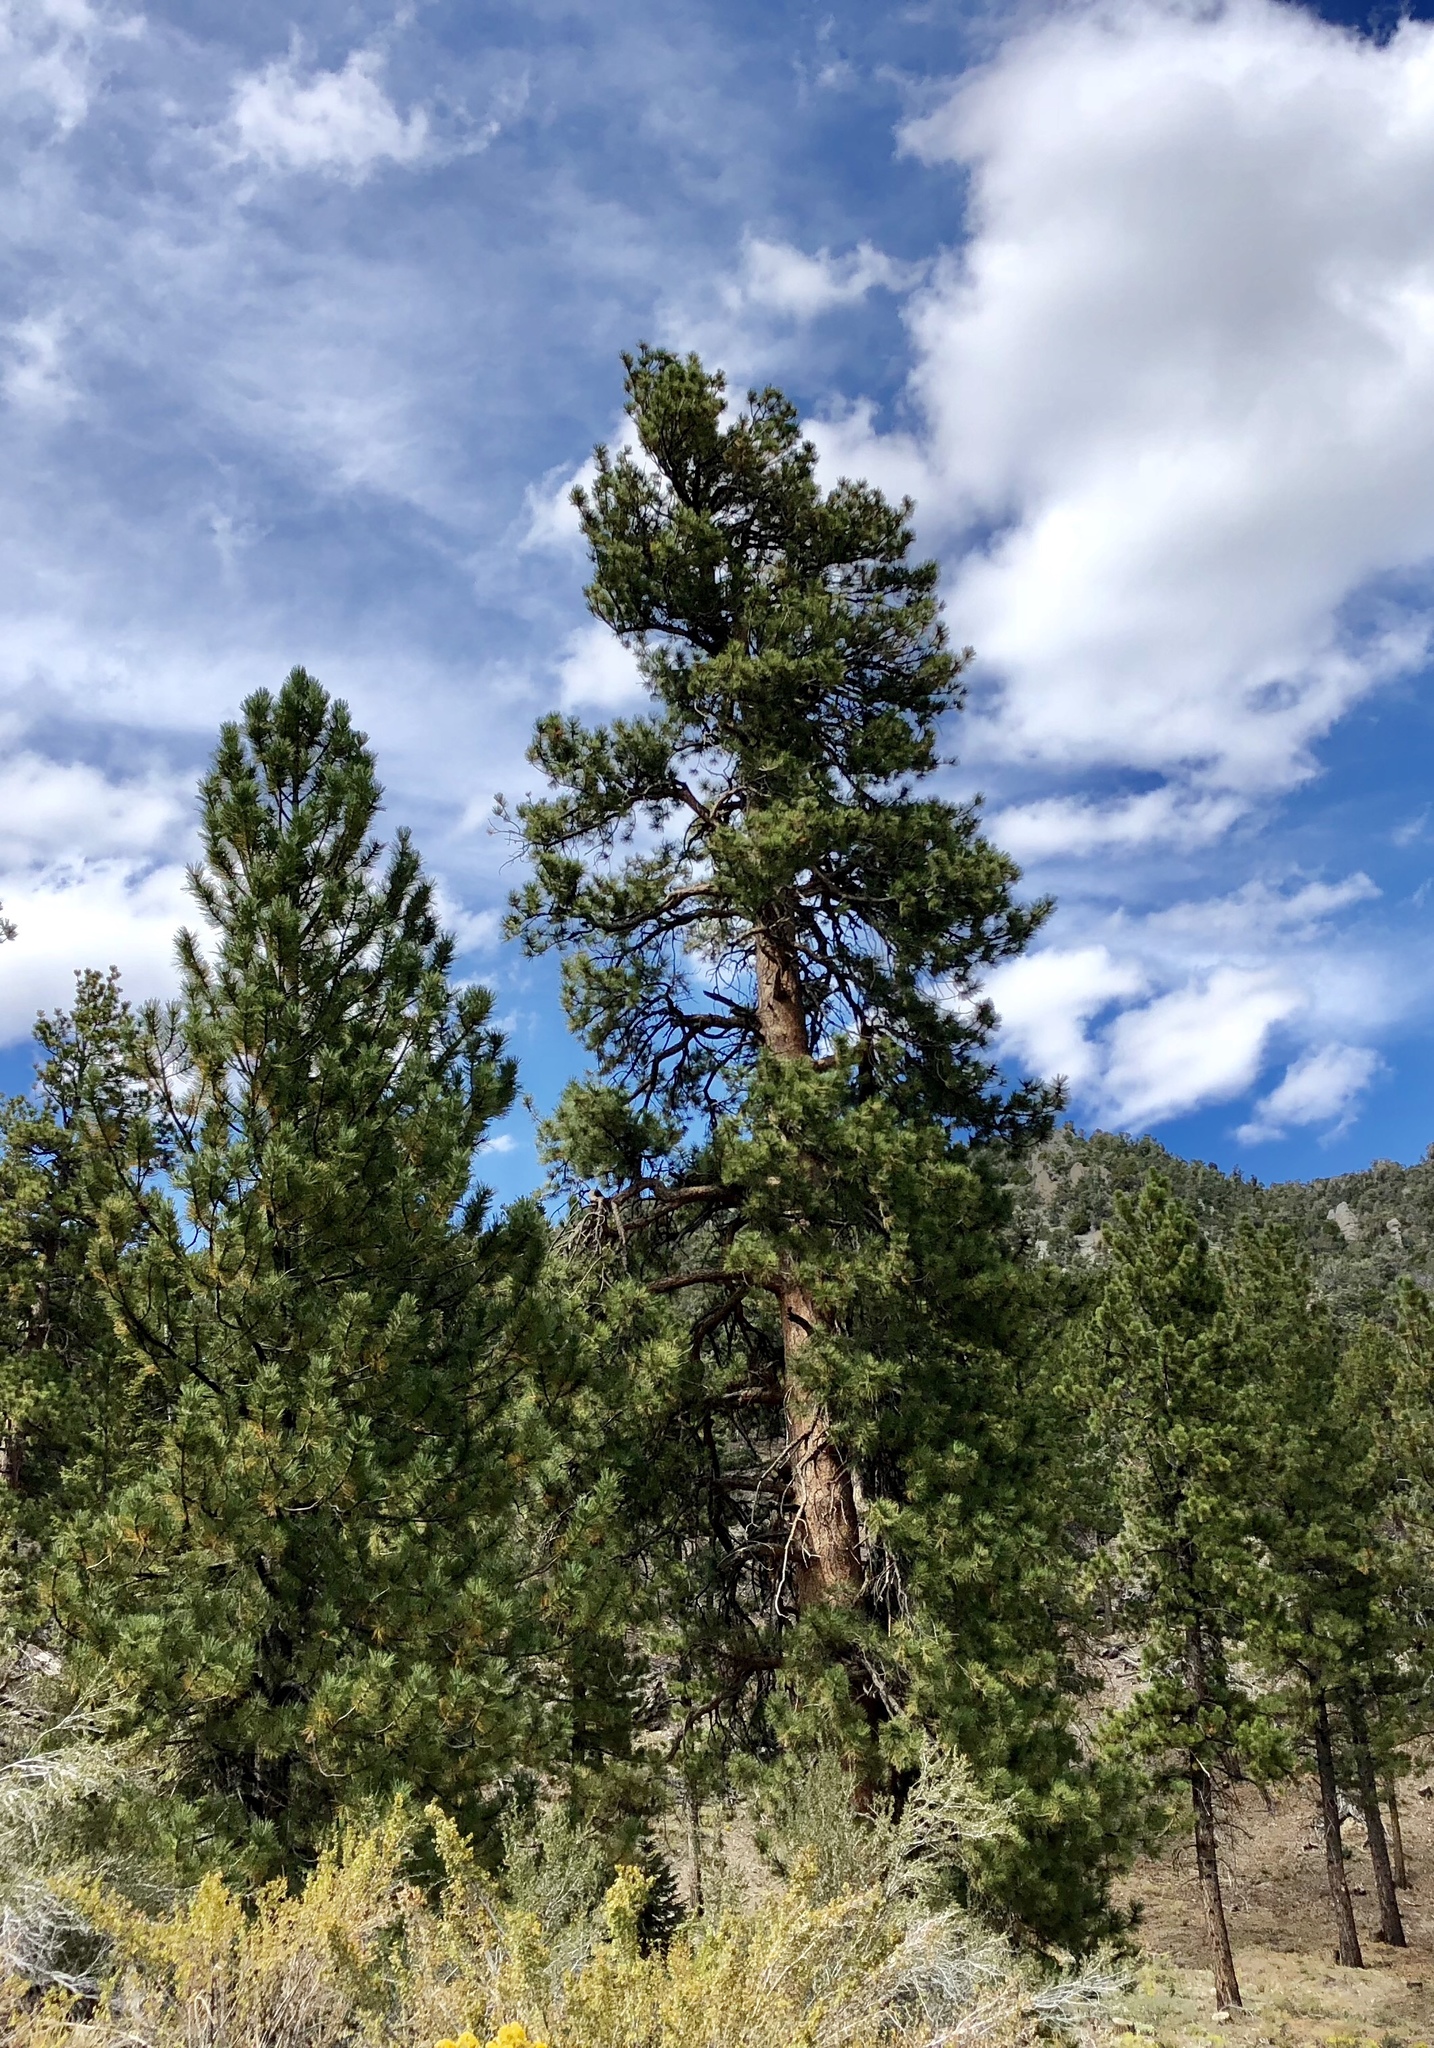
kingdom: Plantae
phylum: Tracheophyta
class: Pinopsida
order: Pinales
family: Pinaceae
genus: Pinus
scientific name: Pinus ponderosa
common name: Western yellow-pine
